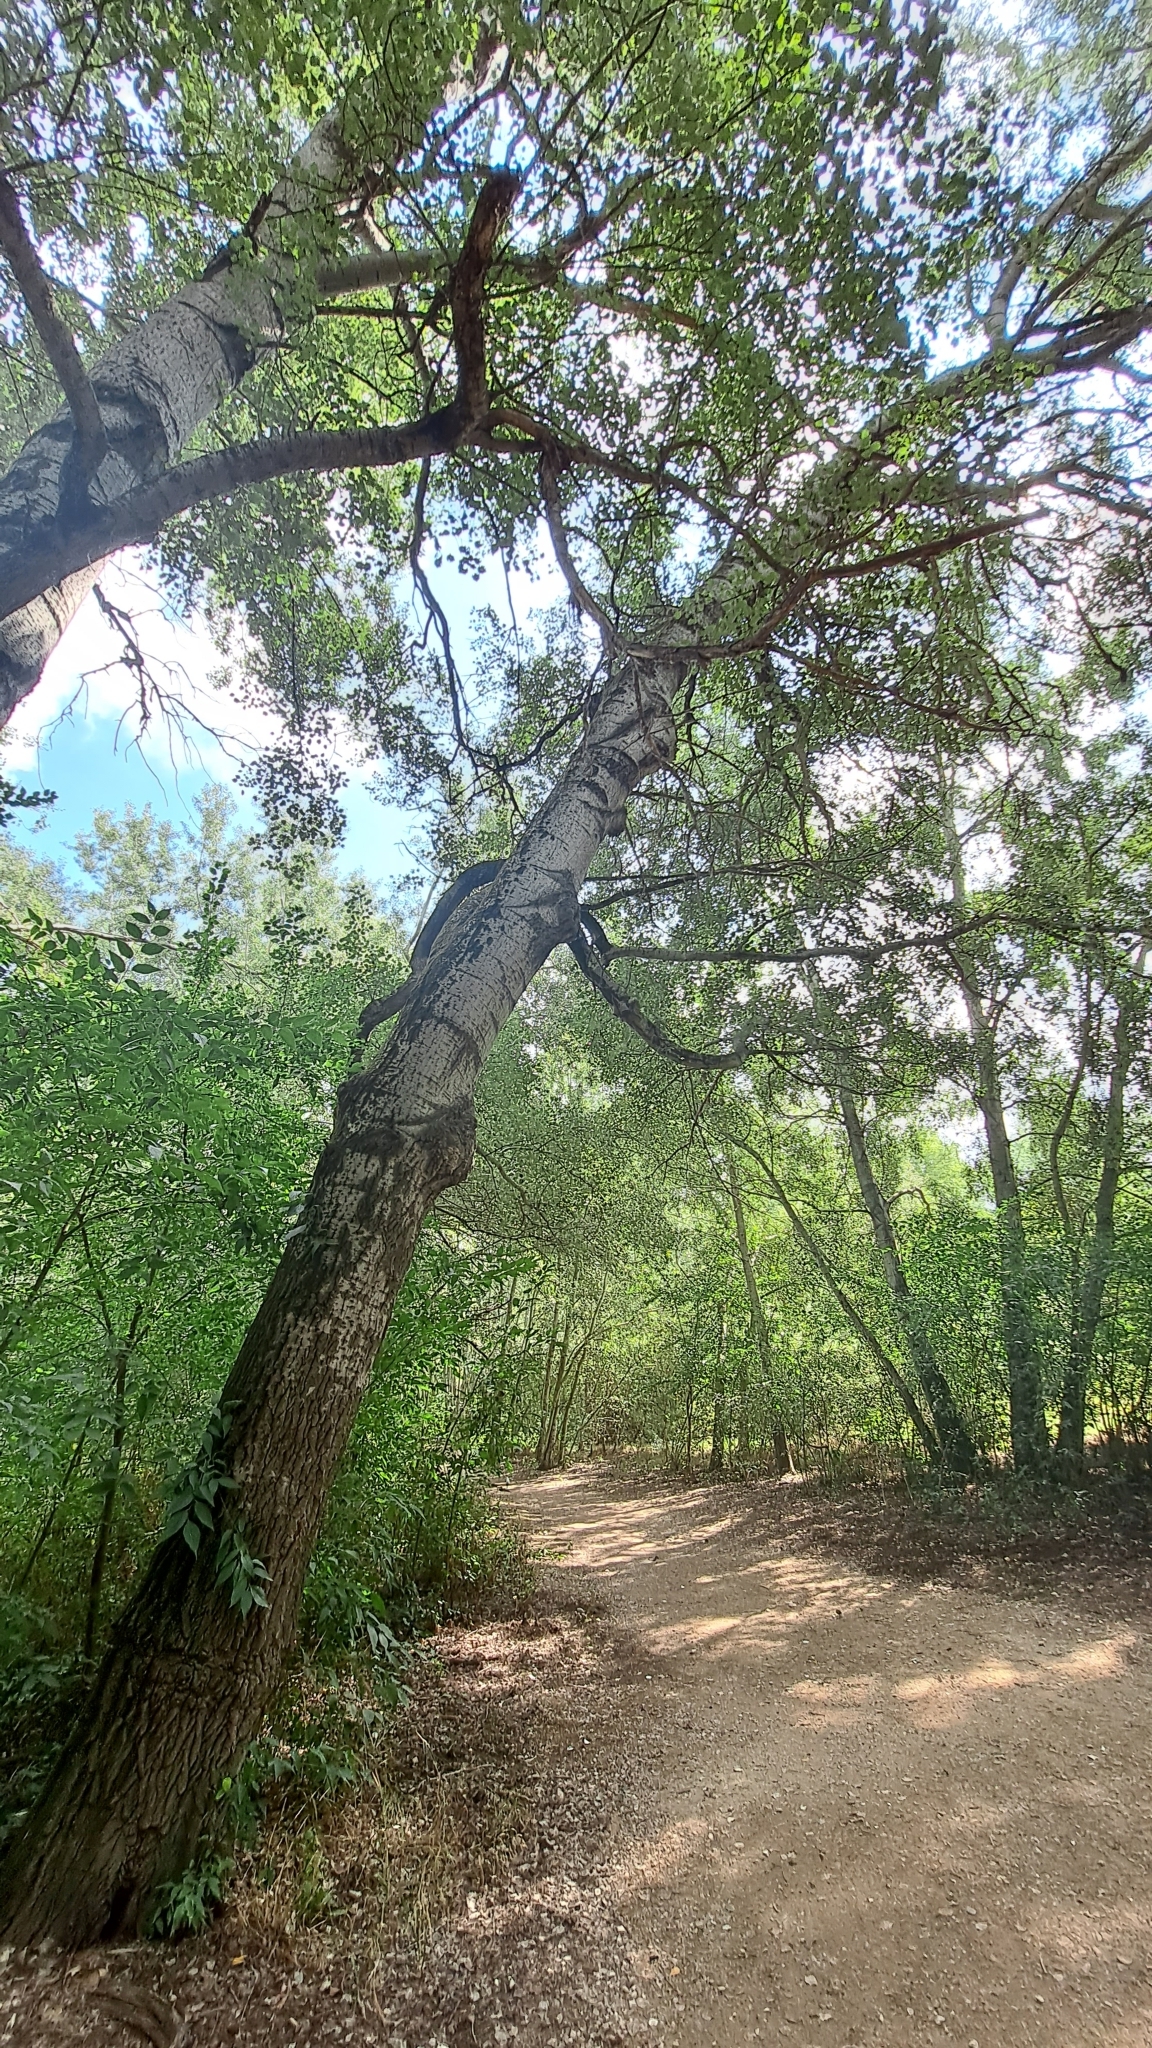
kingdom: Plantae
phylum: Tracheophyta
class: Magnoliopsida
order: Malpighiales
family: Salicaceae
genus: Populus
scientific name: Populus alba
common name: White poplar
